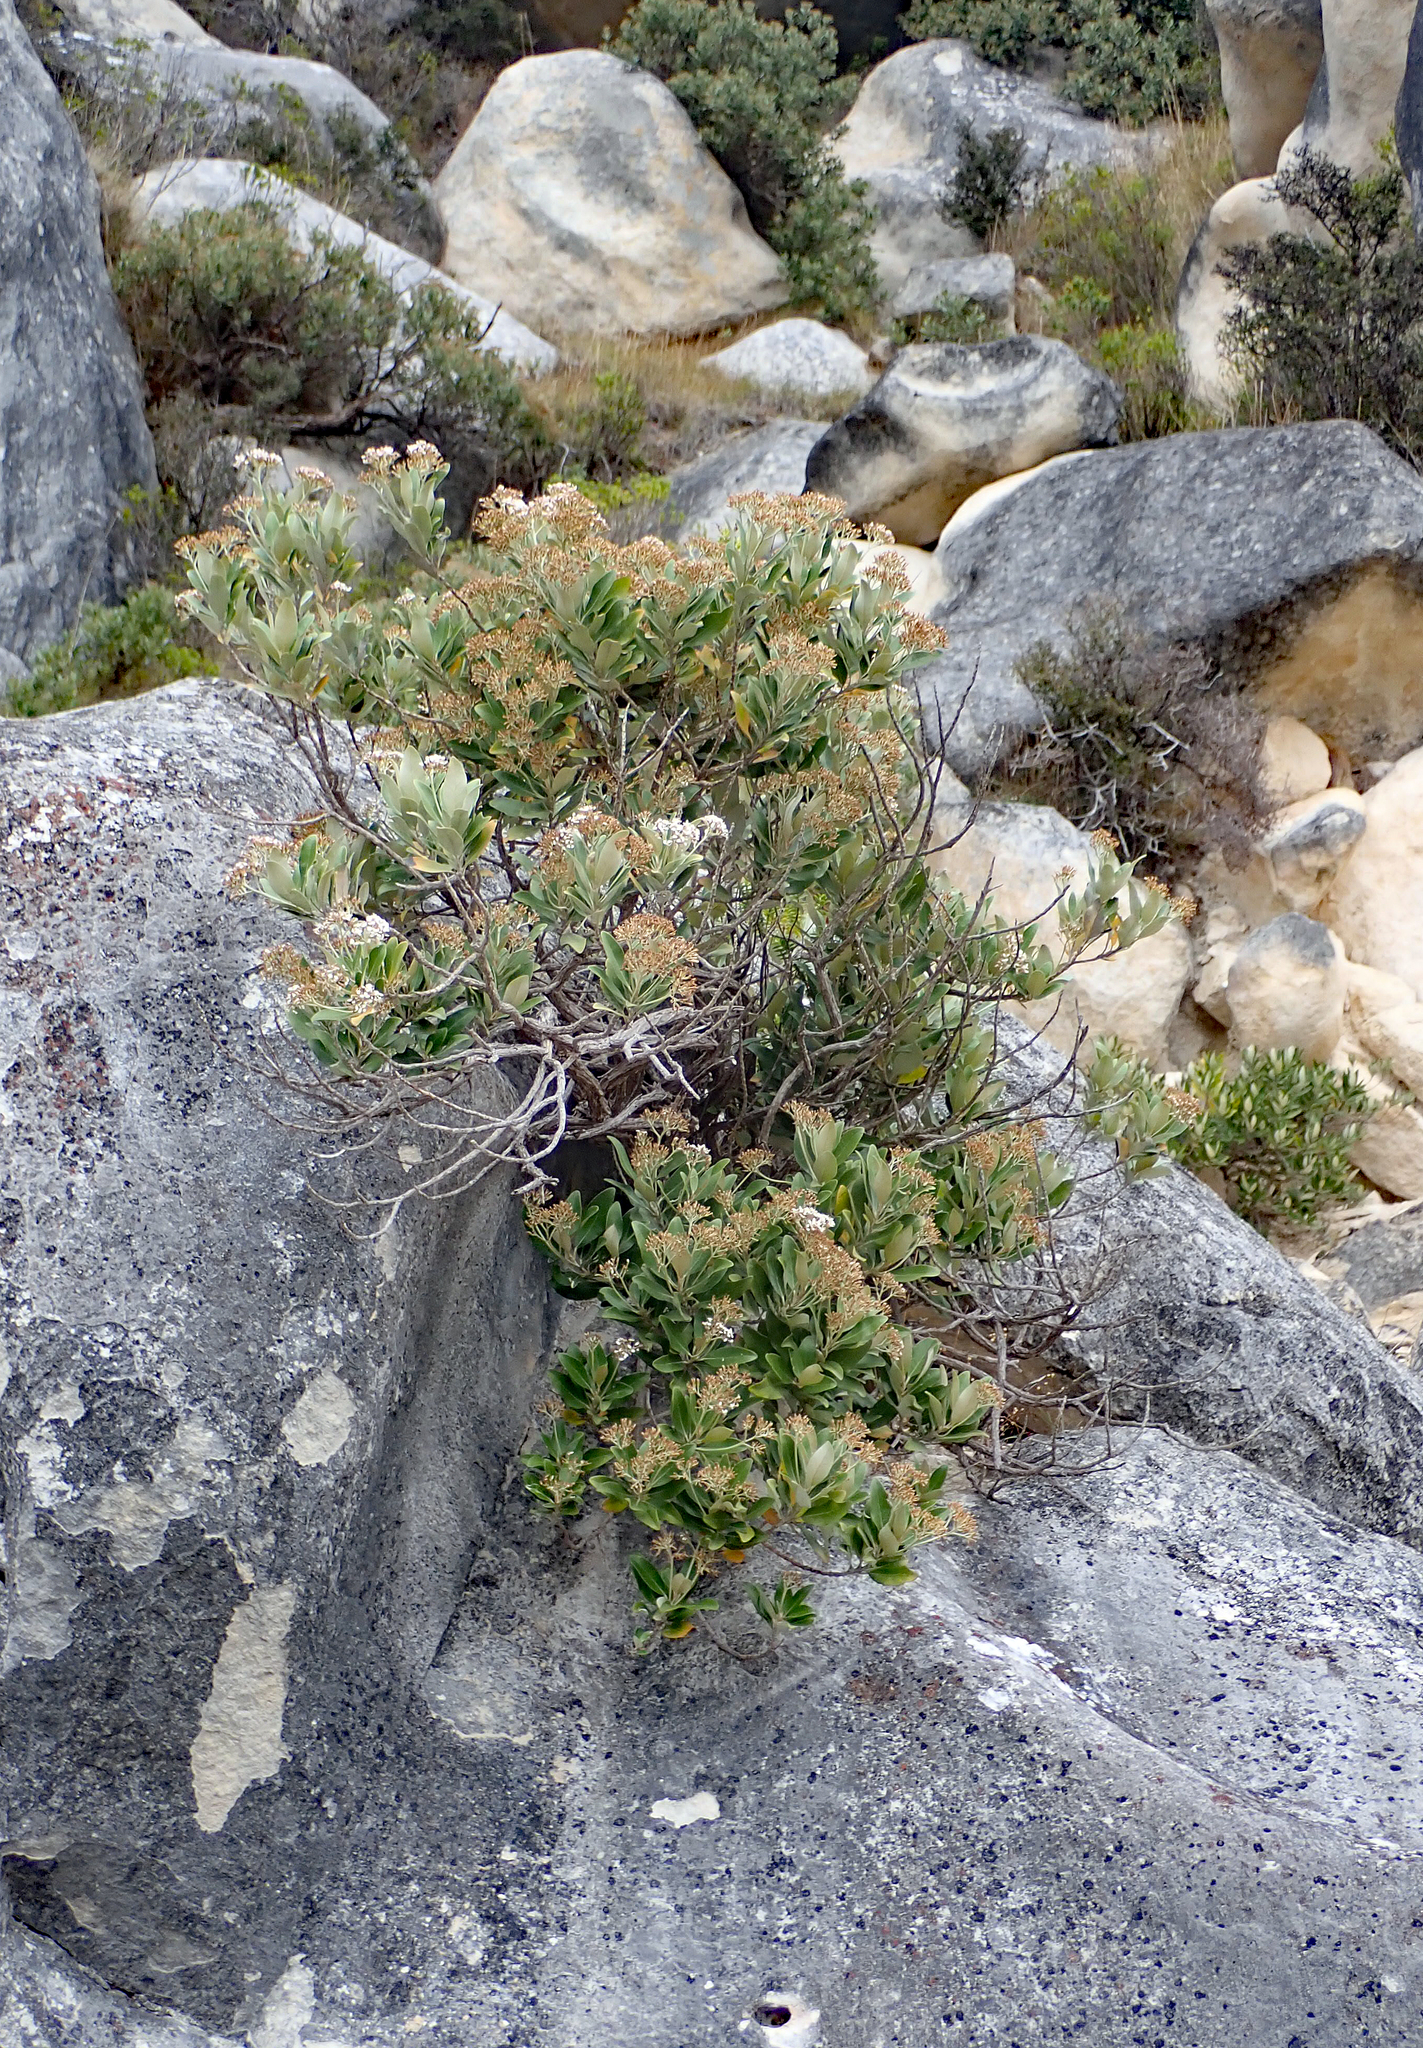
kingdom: Plantae
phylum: Tracheophyta
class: Magnoliopsida
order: Asterales
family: Asteraceae
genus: Olearia
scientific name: Olearia avicenniifolia
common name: Mangrove-leaf daisybush
